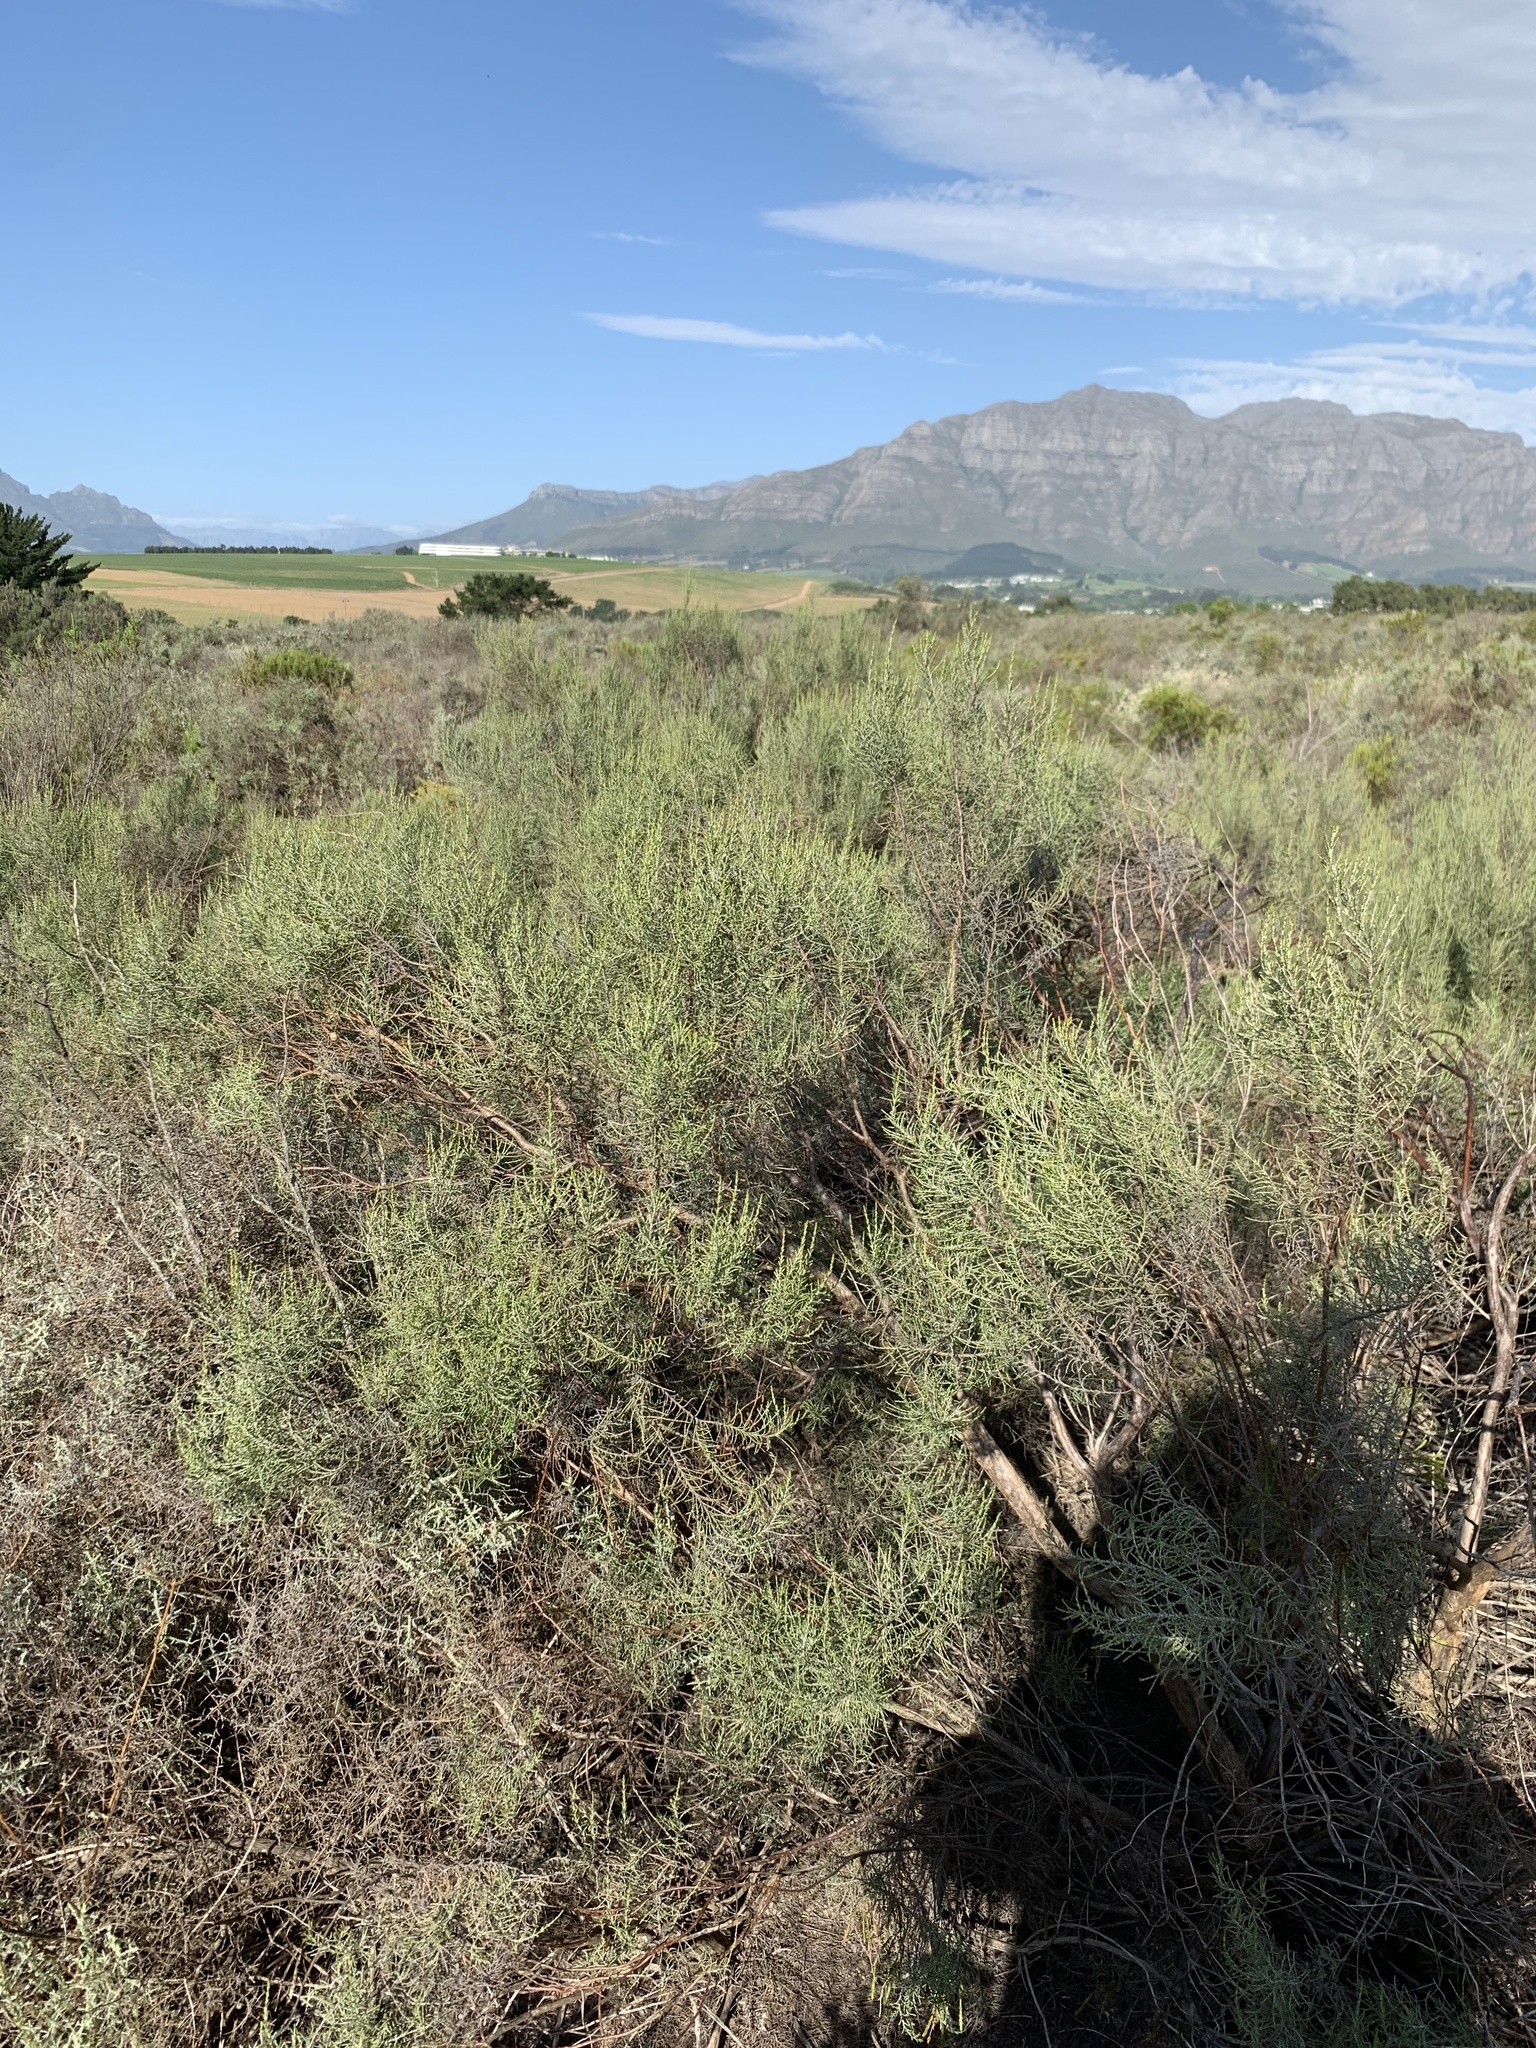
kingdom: Plantae
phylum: Tracheophyta
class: Magnoliopsida
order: Asterales
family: Asteraceae
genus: Dicerothamnus
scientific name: Dicerothamnus rhinocerotis
